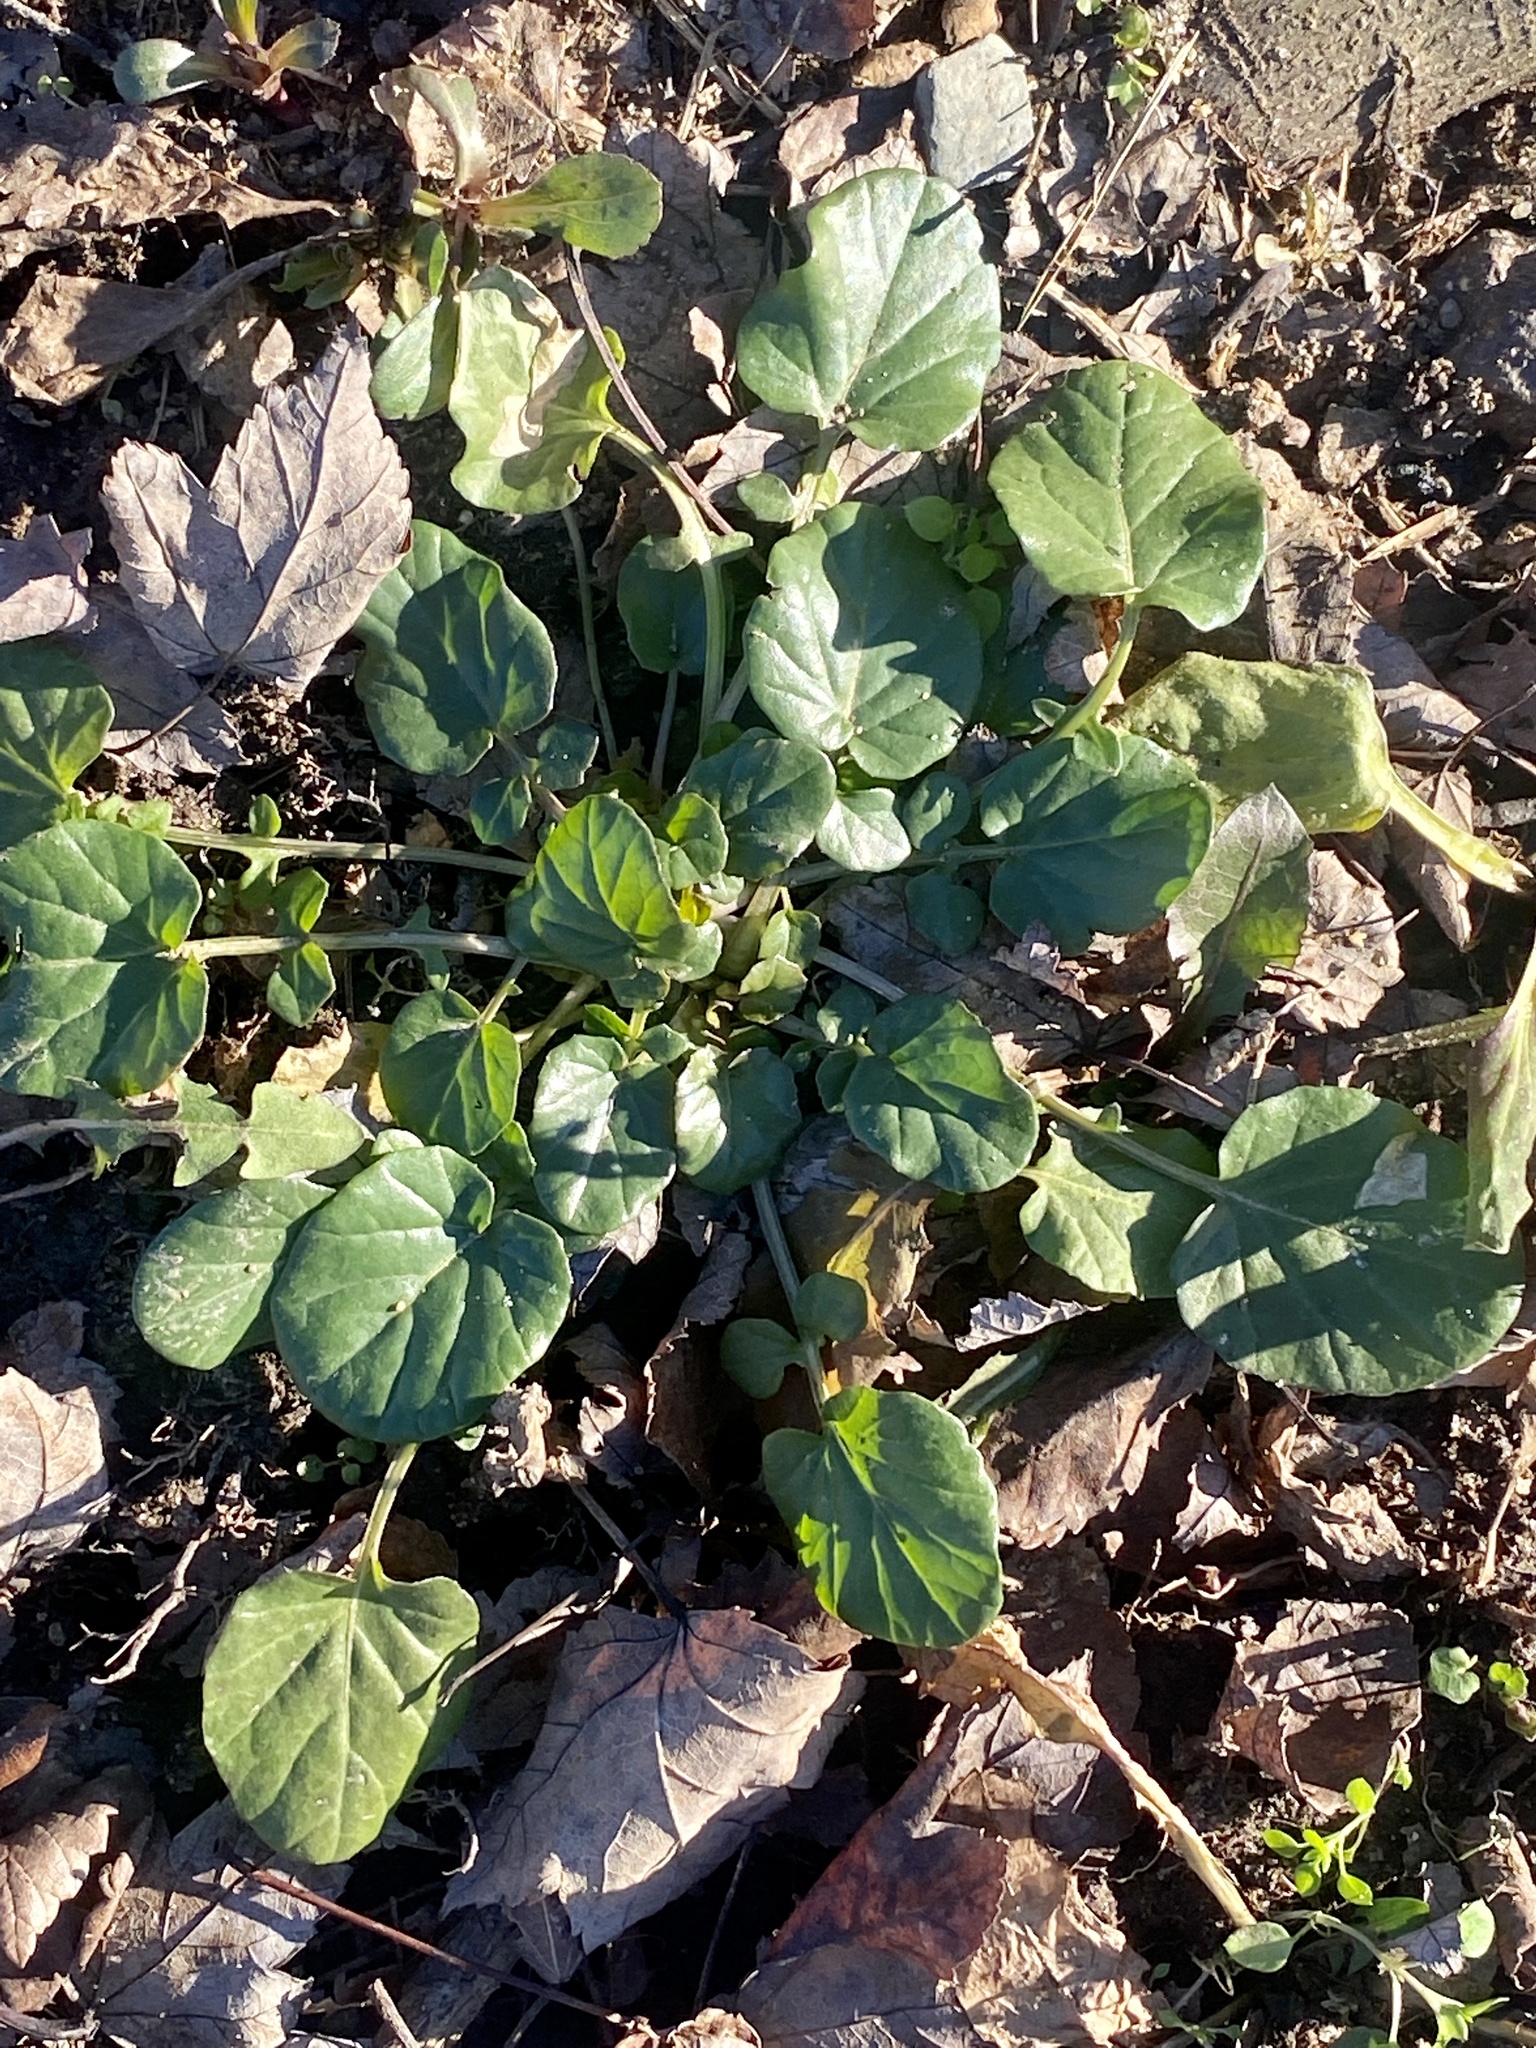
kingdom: Plantae
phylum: Tracheophyta
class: Magnoliopsida
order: Brassicales
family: Brassicaceae
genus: Barbarea
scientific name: Barbarea vulgaris
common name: Cressy-greens
